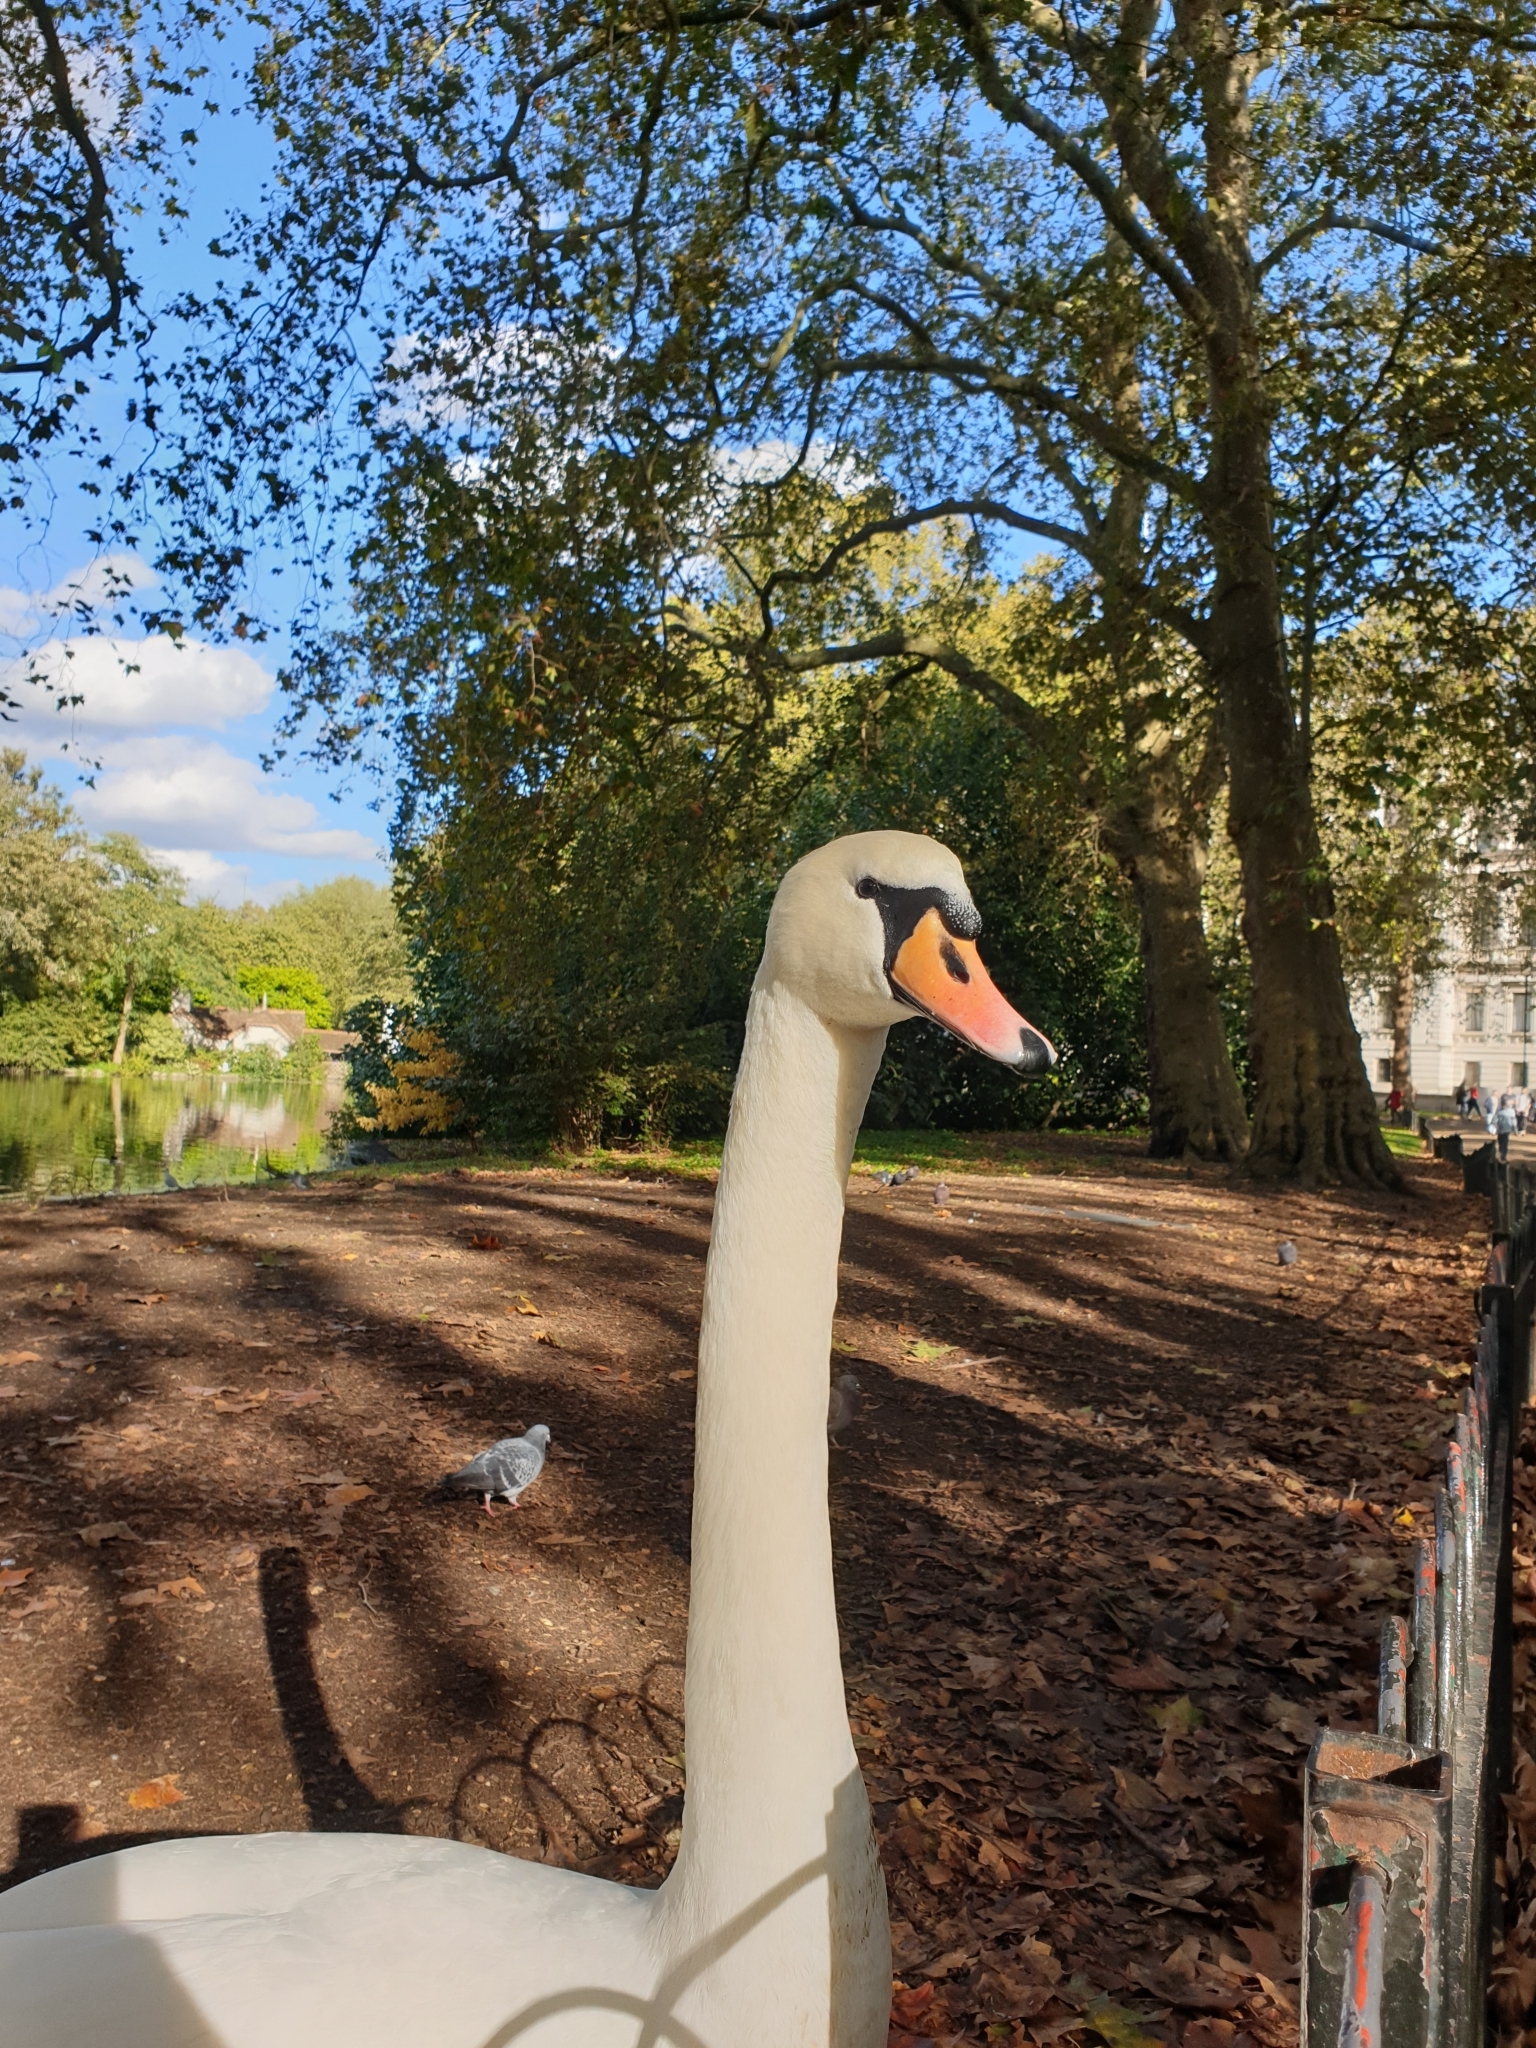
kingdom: Animalia
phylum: Chordata
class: Aves
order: Anseriformes
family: Anatidae
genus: Cygnus
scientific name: Cygnus olor
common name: Mute swan
